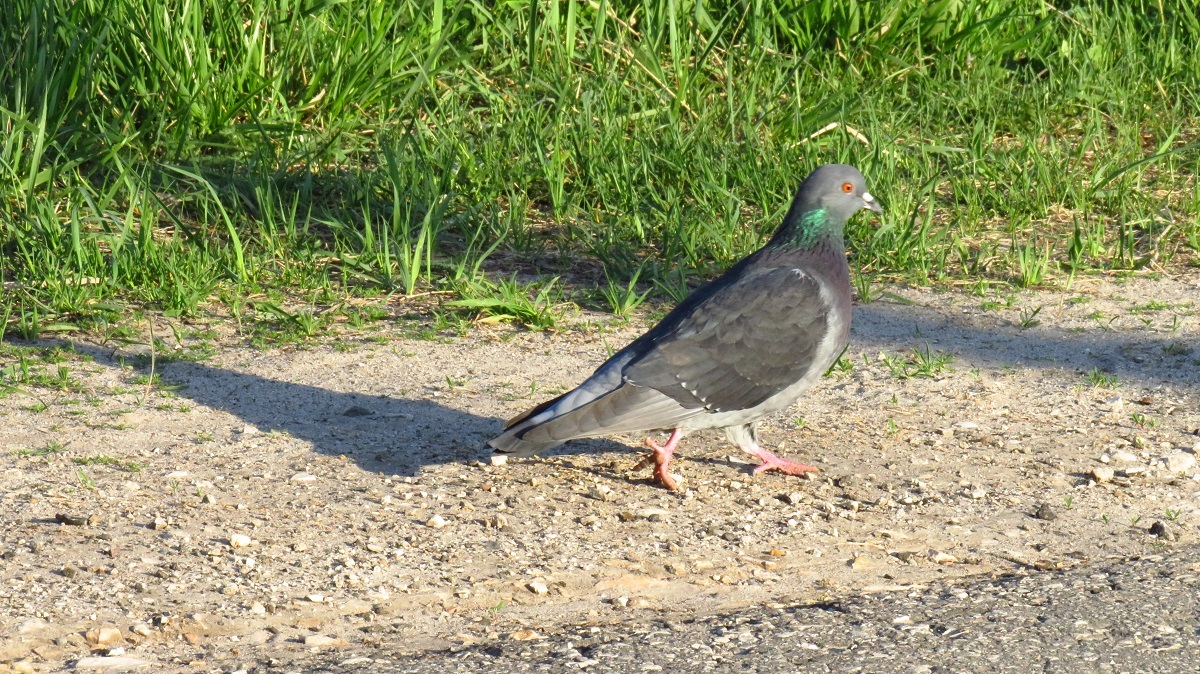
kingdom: Animalia
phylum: Chordata
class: Aves
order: Columbiformes
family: Columbidae
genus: Columba
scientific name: Columba livia
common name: Rock pigeon
